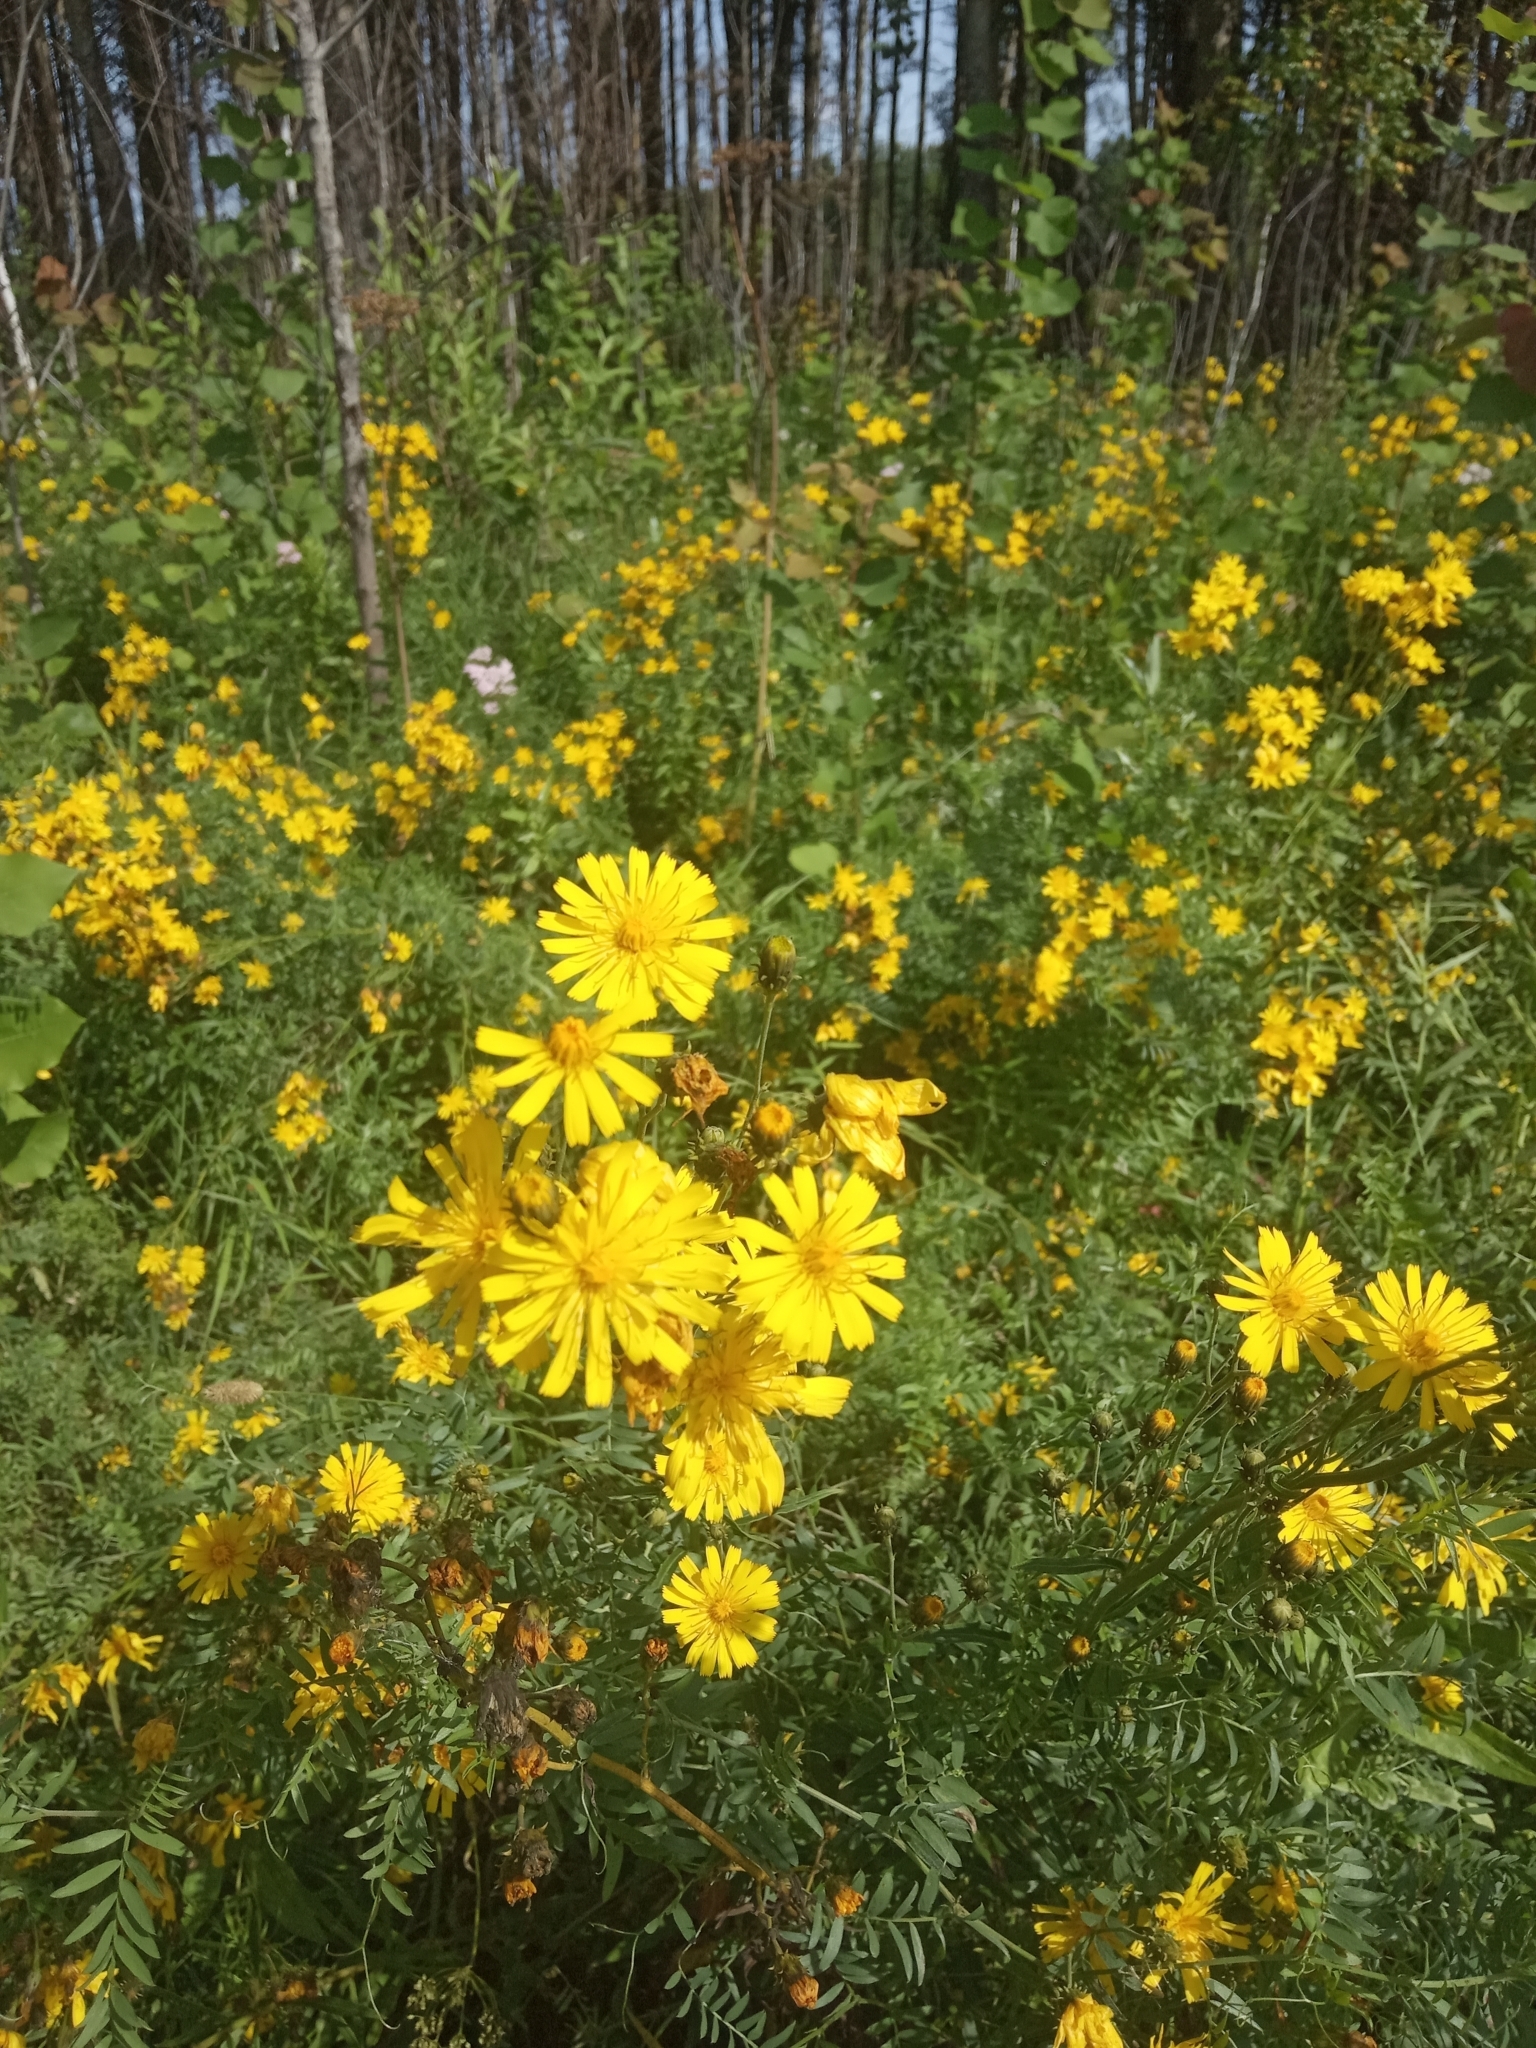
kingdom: Plantae
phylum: Tracheophyta
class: Magnoliopsida
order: Asterales
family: Asteraceae
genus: Hieracium
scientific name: Hieracium umbellatum
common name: Northern hawkweed
